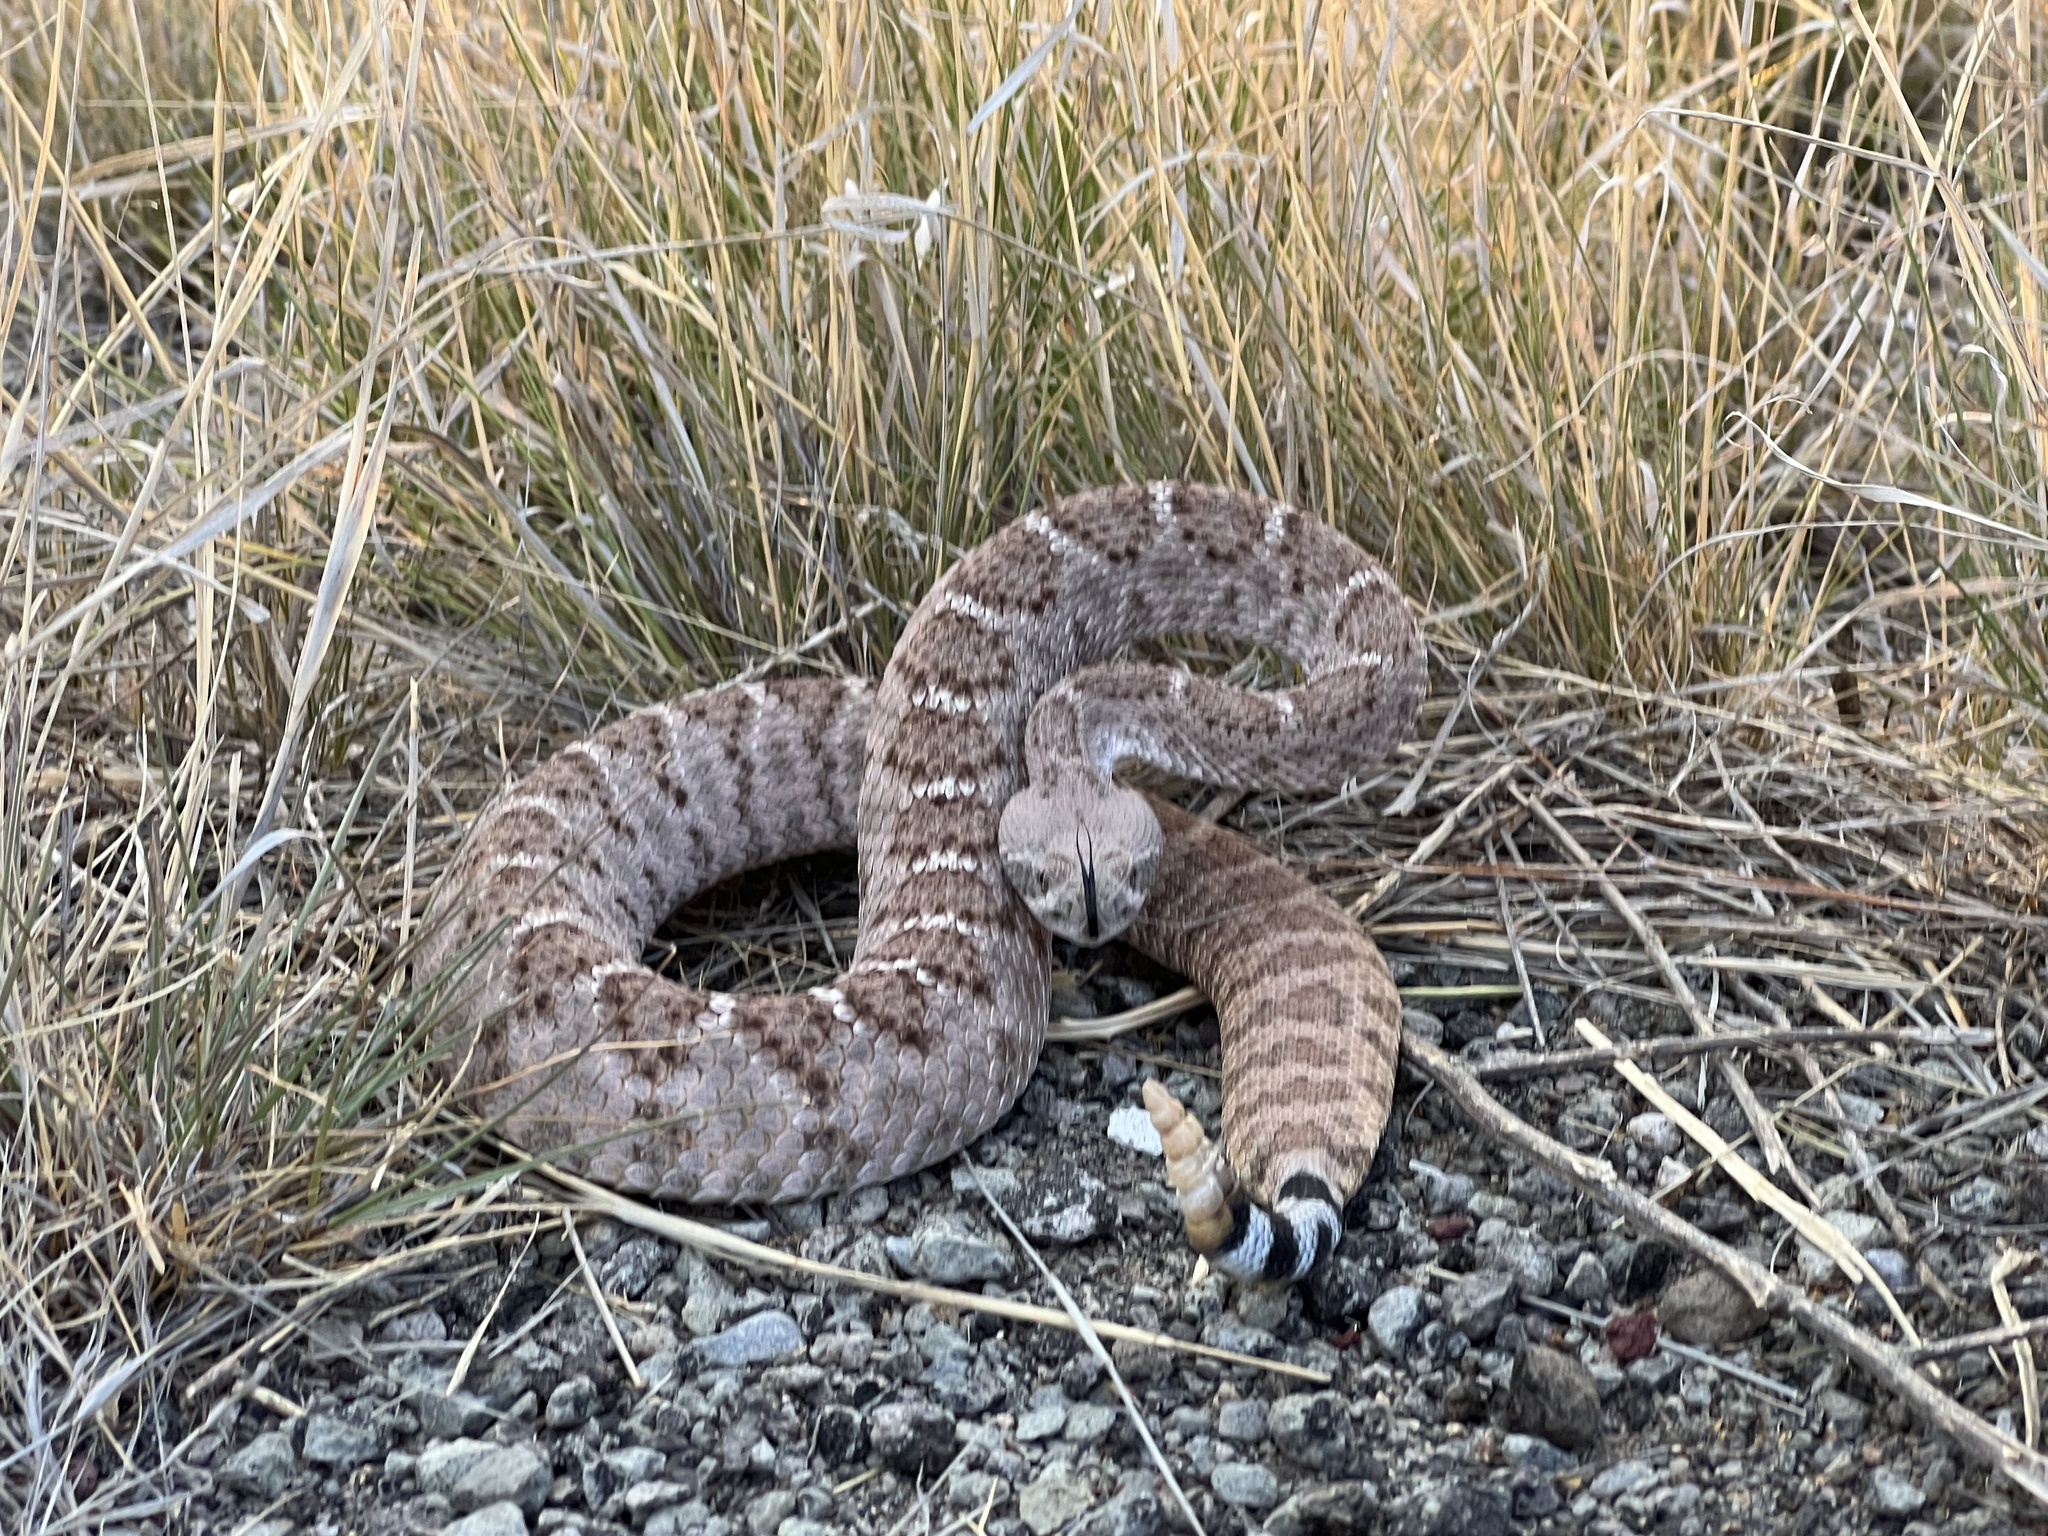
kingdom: Animalia
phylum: Chordata
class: Squamata
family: Viperidae
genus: Crotalus
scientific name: Crotalus atrox
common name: Western diamond-backed rattlesnake
